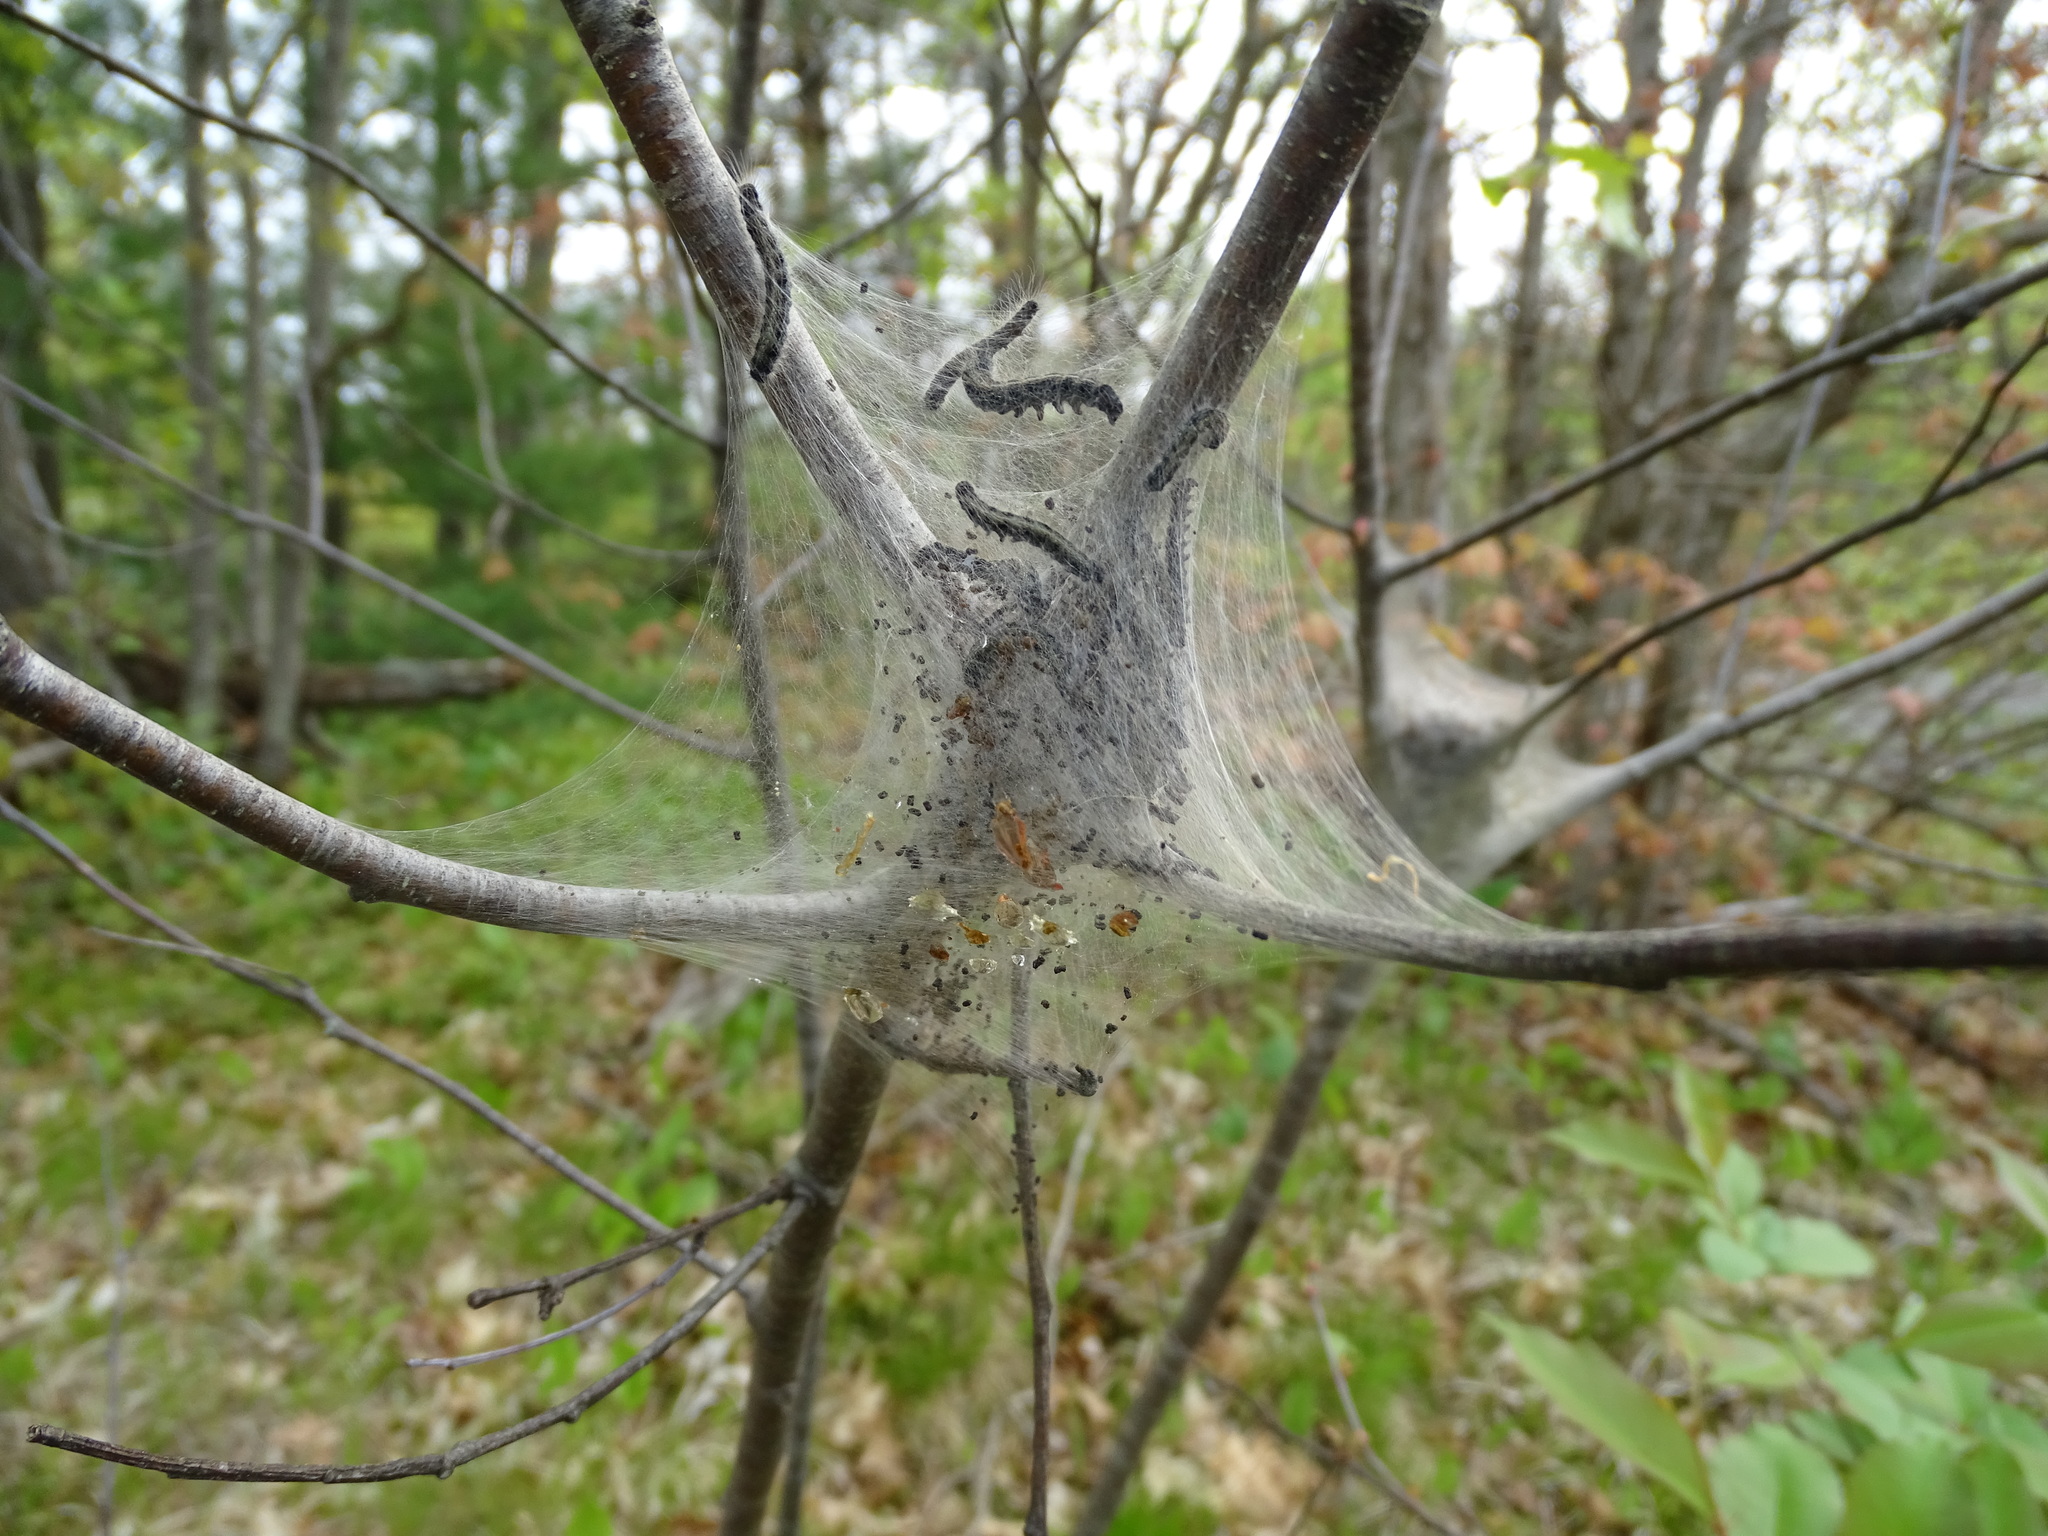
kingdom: Animalia
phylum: Arthropoda
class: Insecta
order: Lepidoptera
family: Lasiocampidae
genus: Malacosoma
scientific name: Malacosoma americana
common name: Eastern tent caterpillar moth
